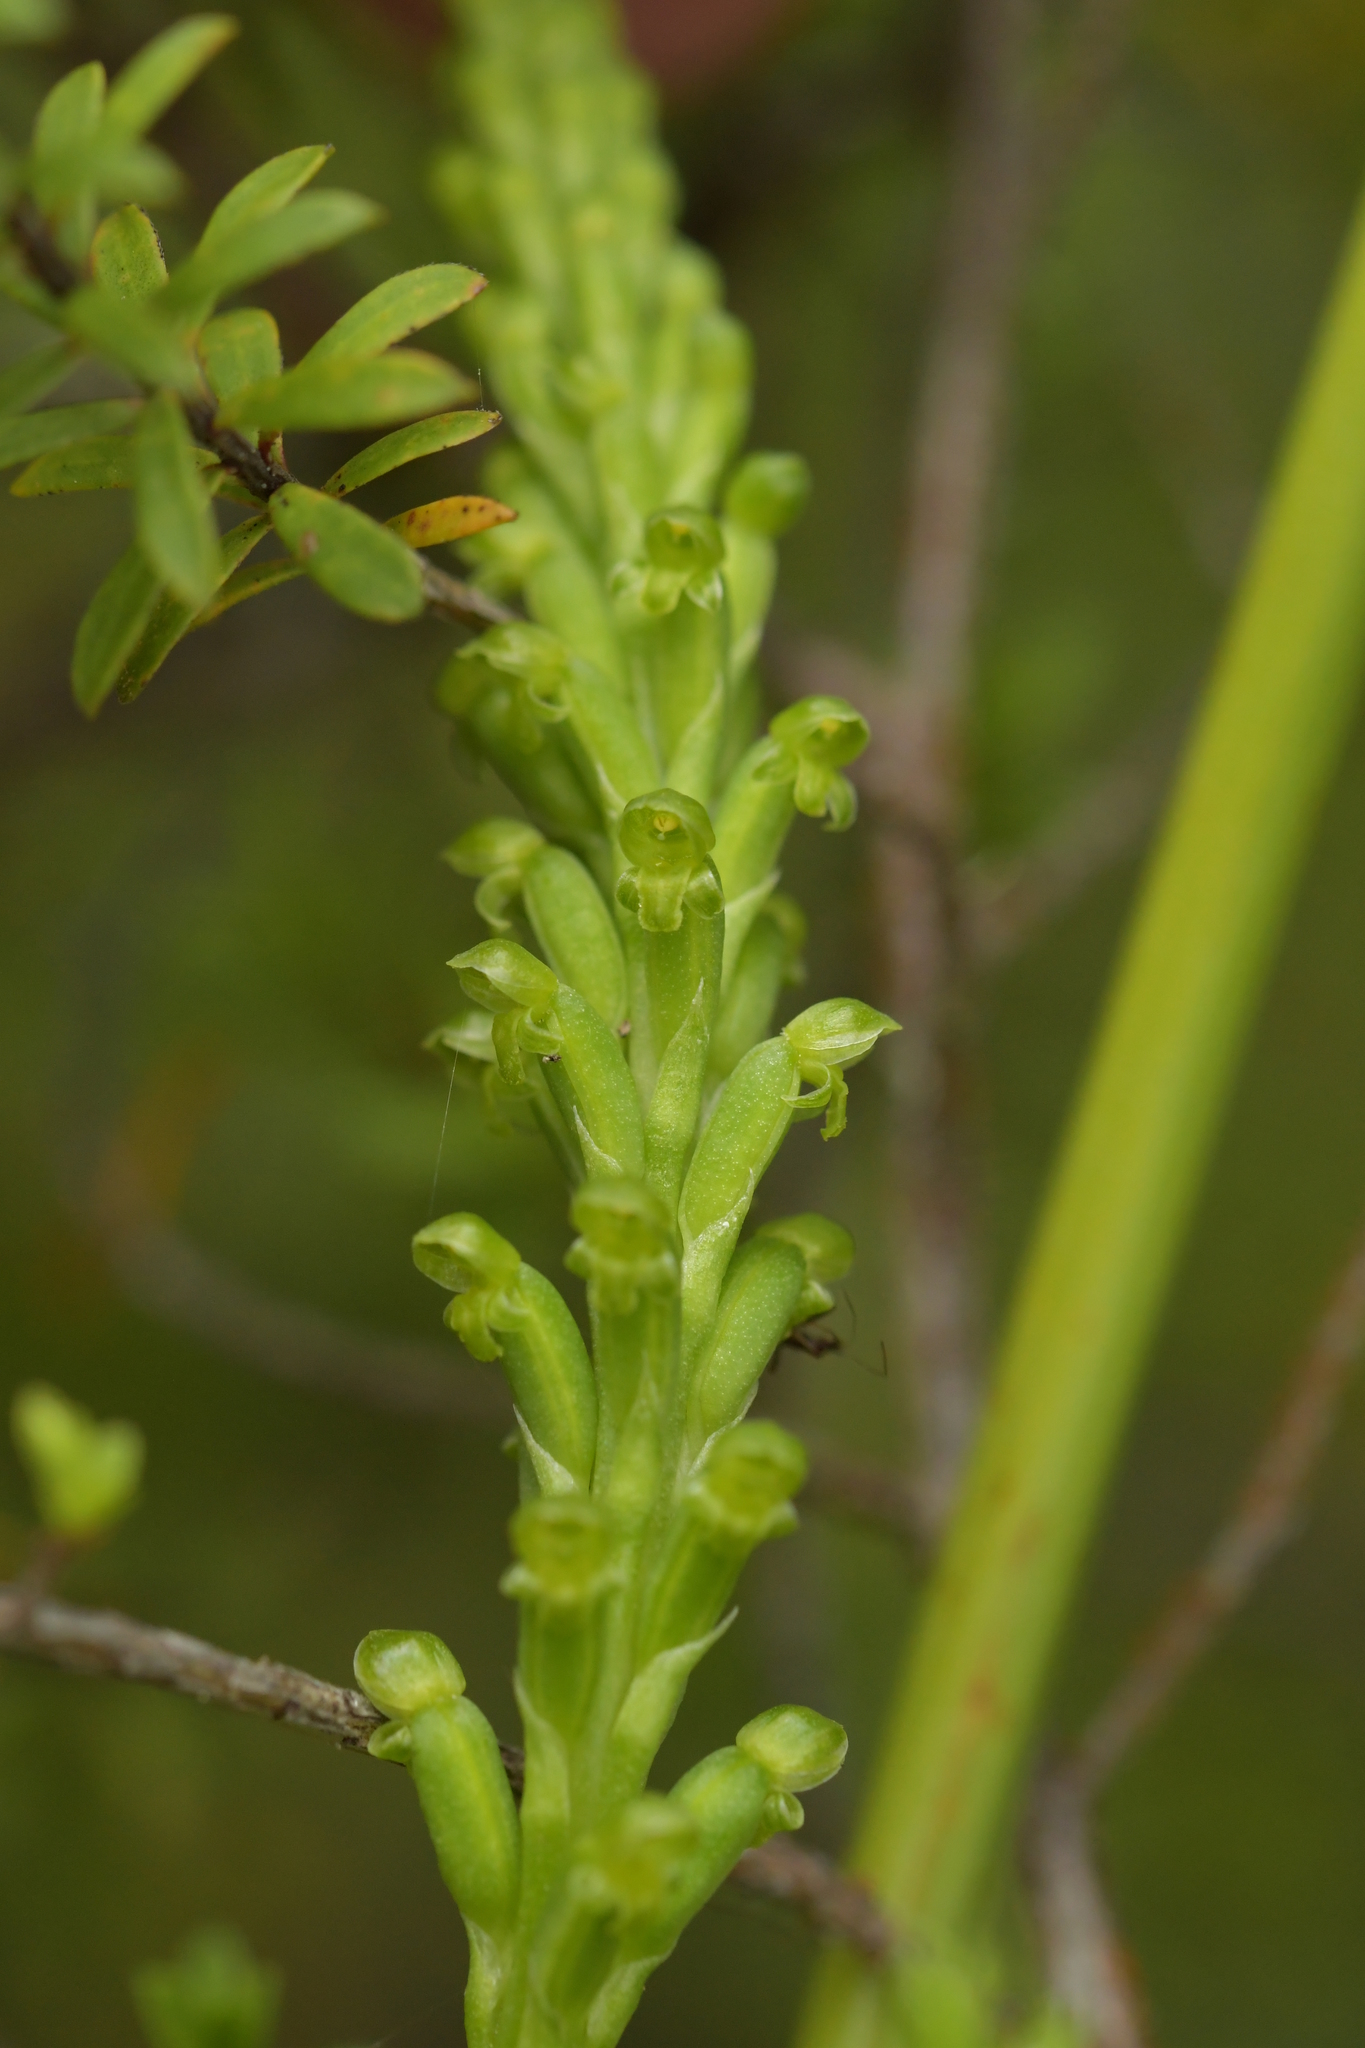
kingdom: Plantae
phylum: Tracheophyta
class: Liliopsida
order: Asparagales
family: Orchidaceae
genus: Microtis
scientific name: Microtis unifolia
